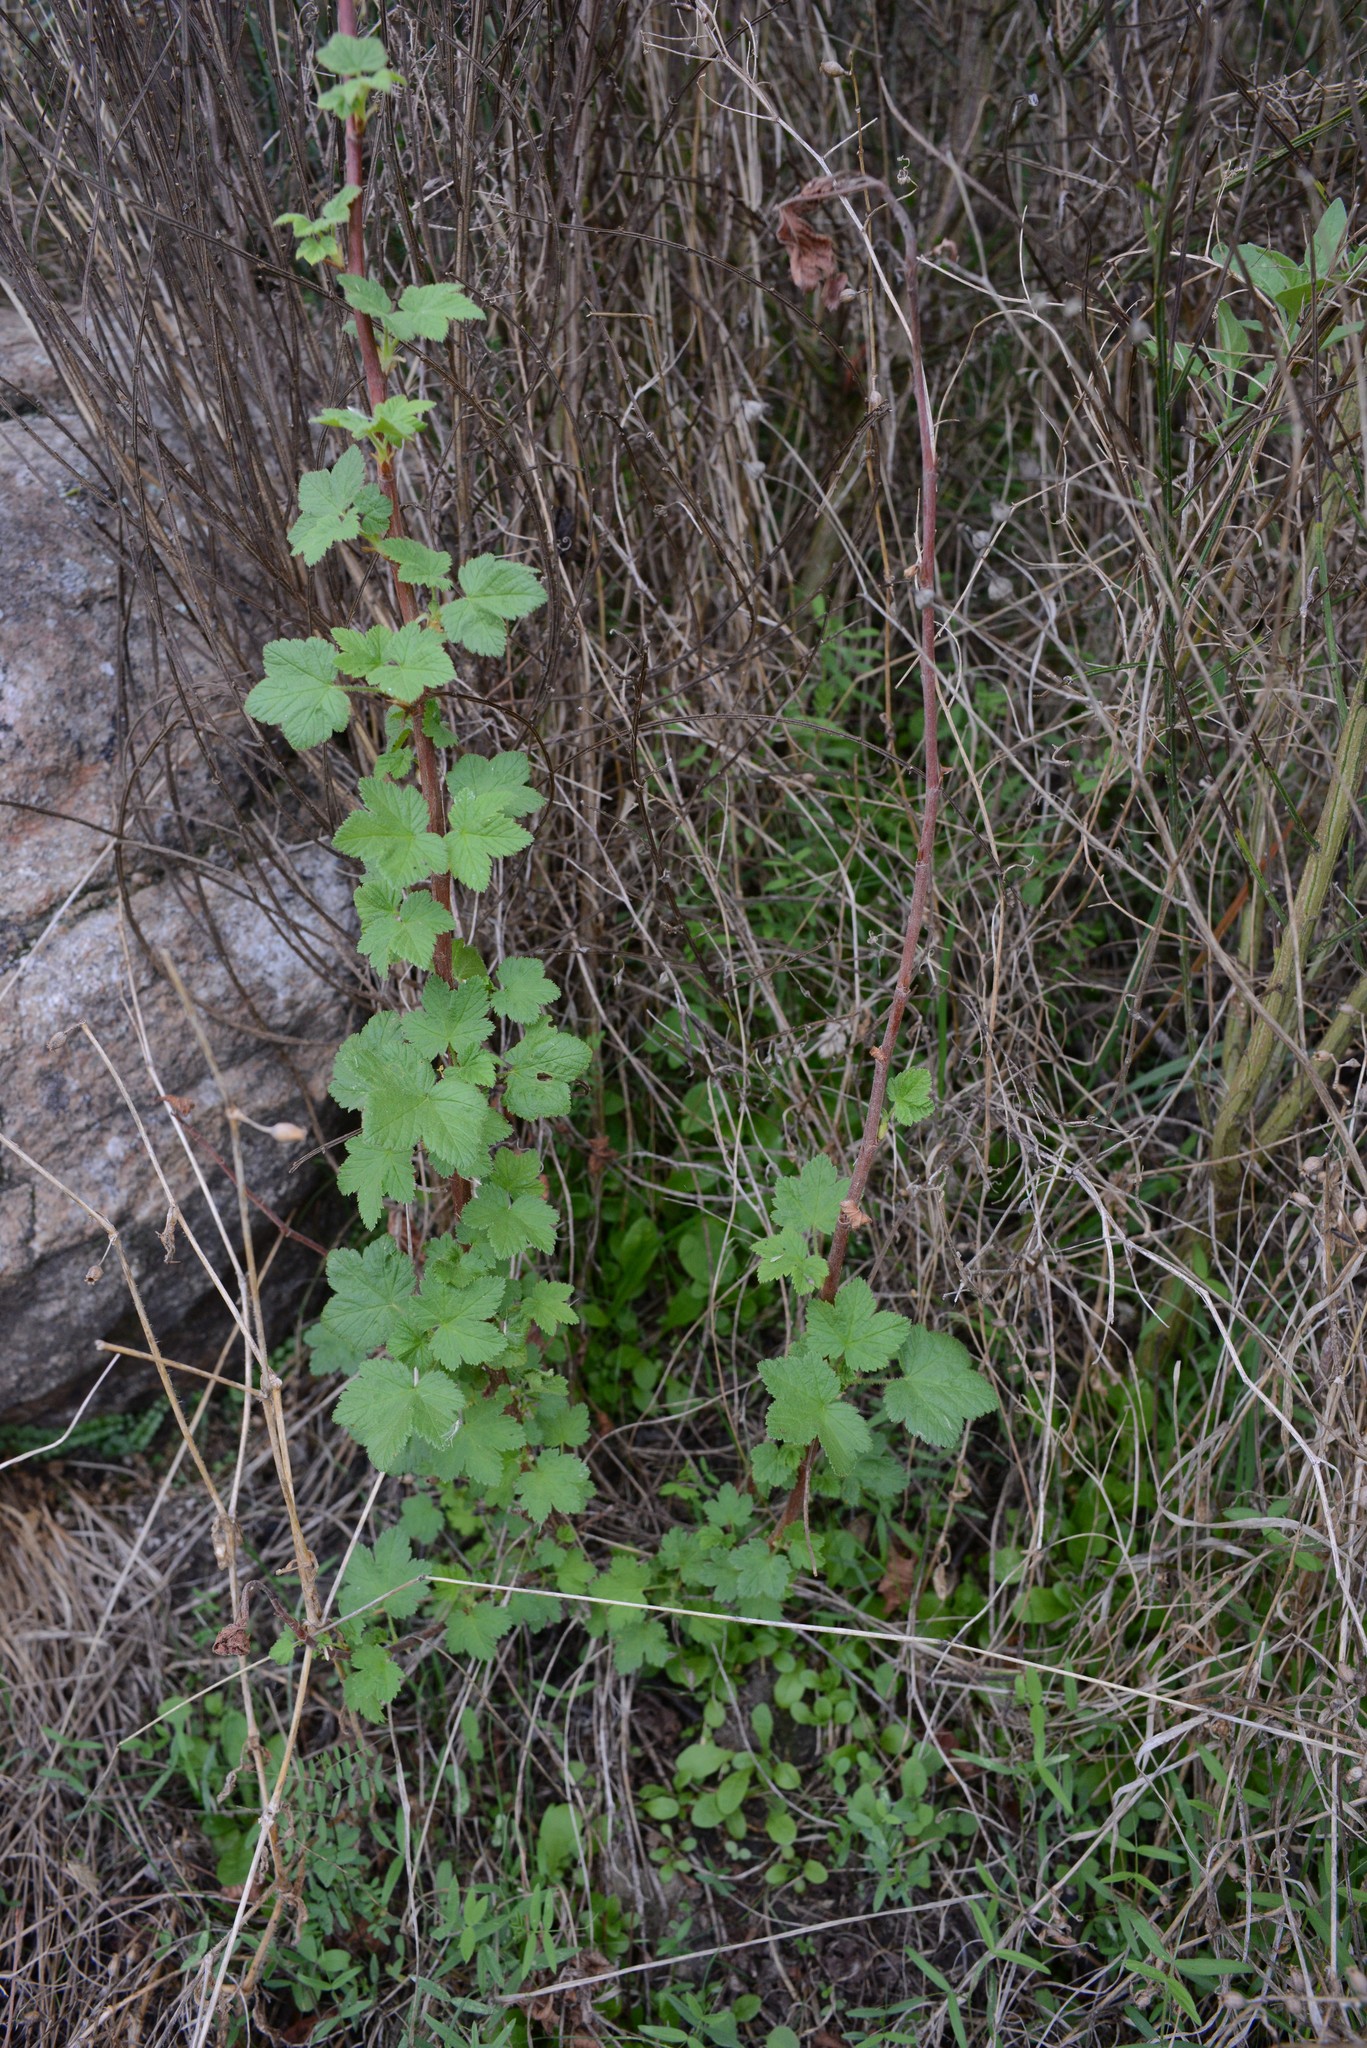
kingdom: Plantae
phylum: Tracheophyta
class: Magnoliopsida
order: Saxifragales
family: Grossulariaceae
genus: Ribes
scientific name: Ribes sanguineum
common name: Flowering currant
